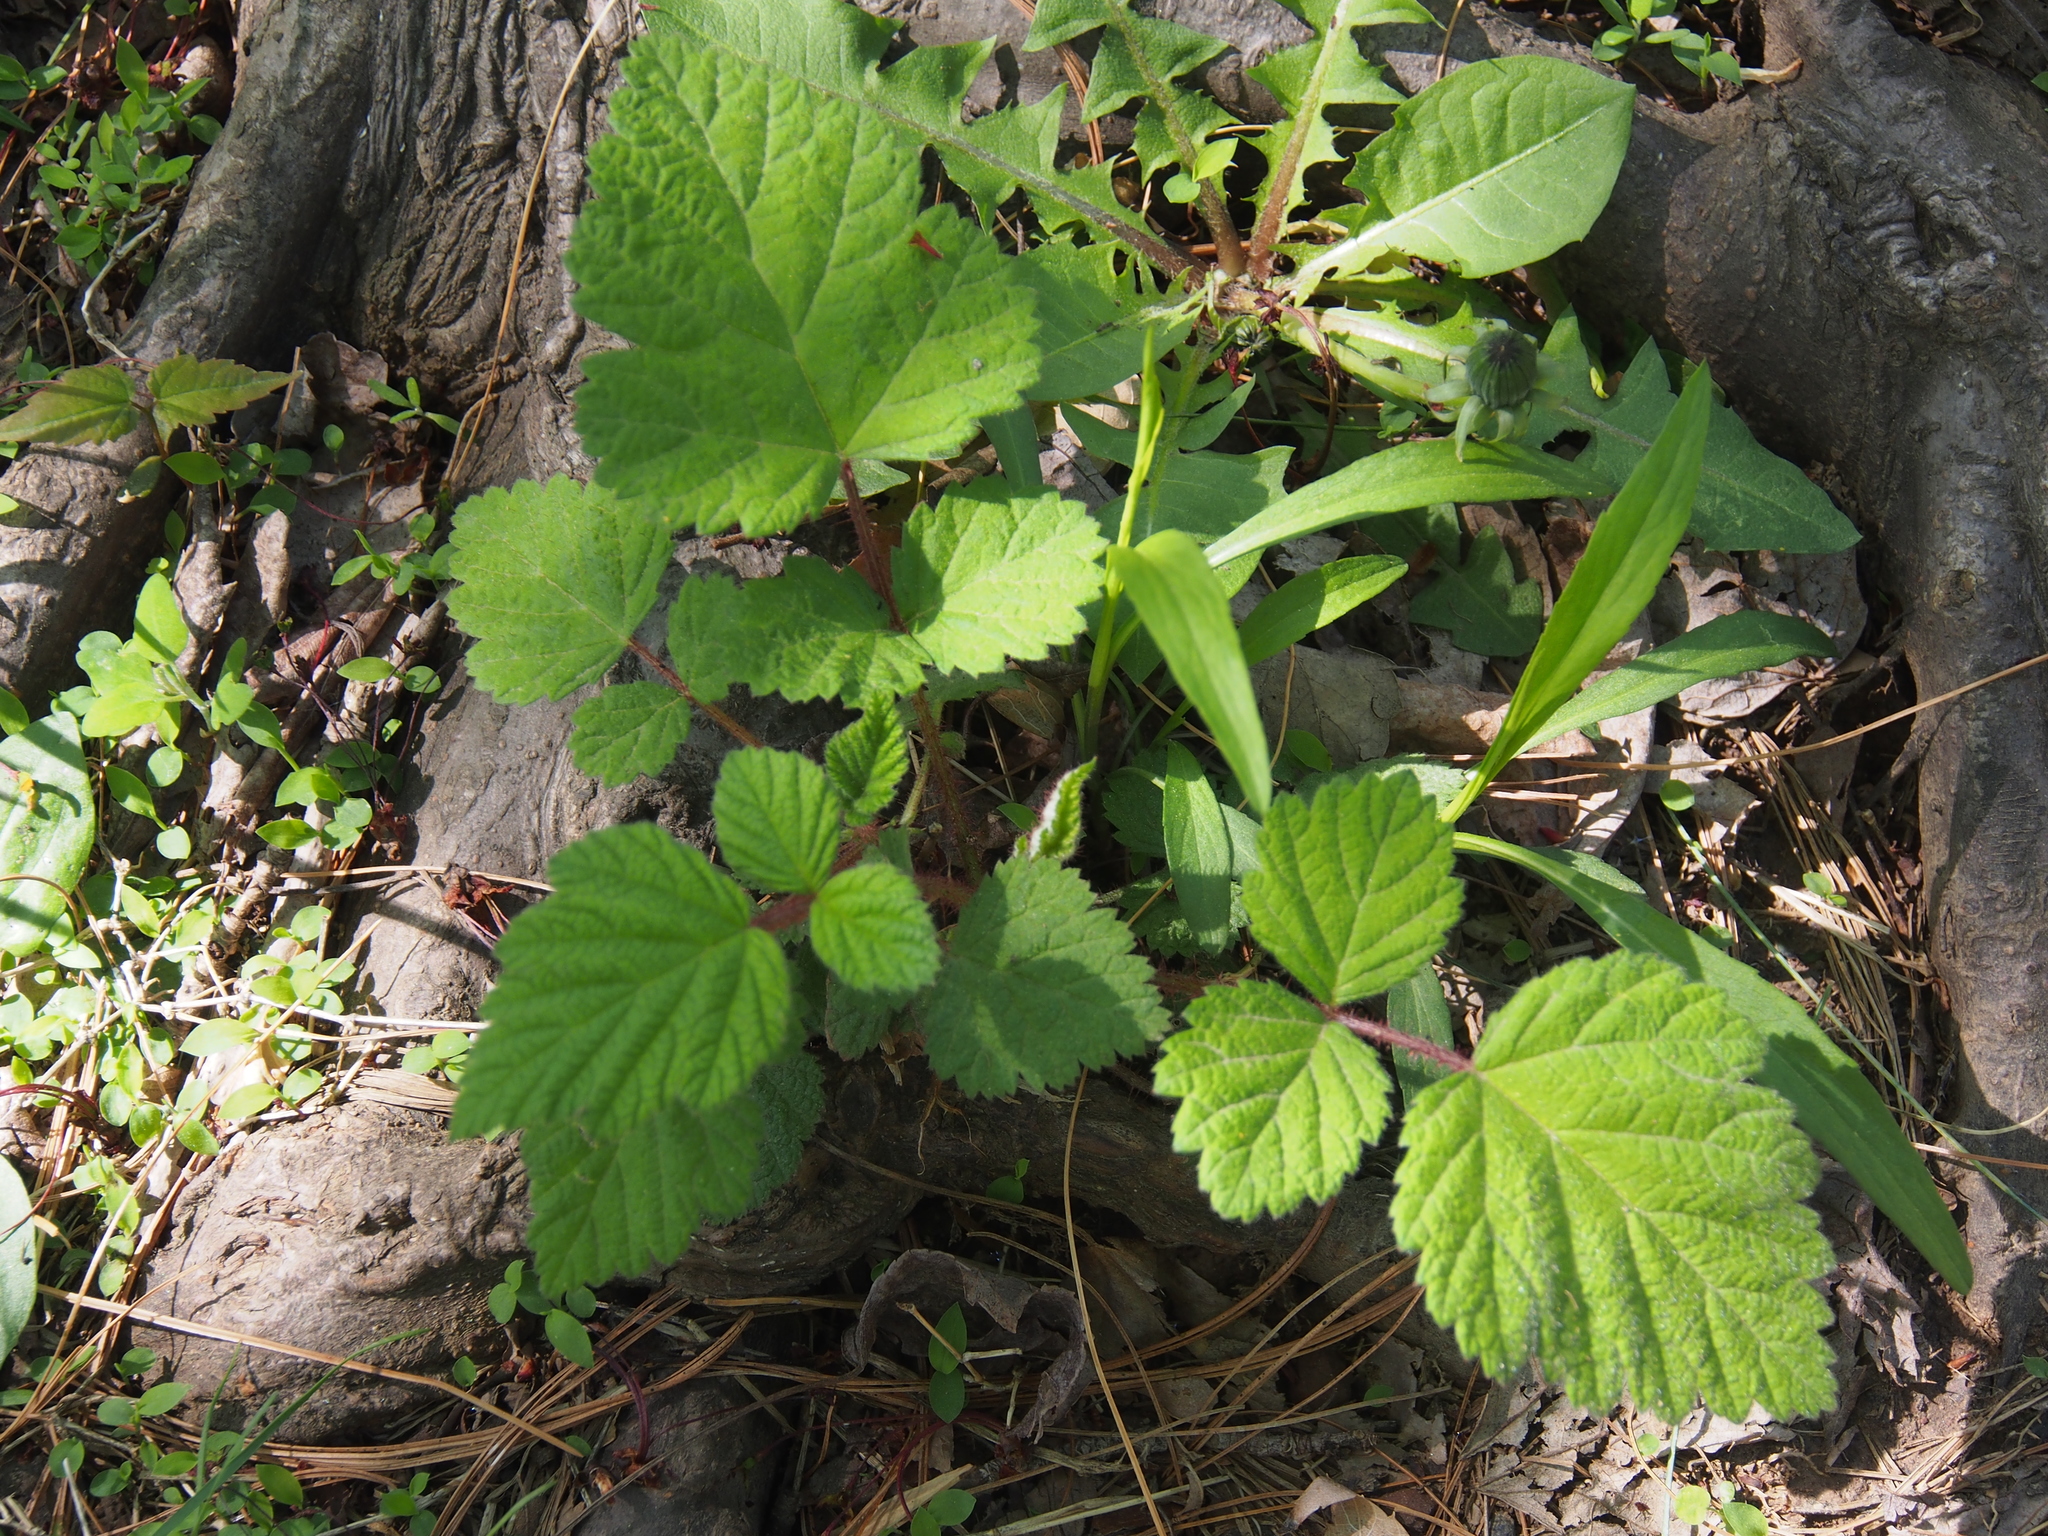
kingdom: Plantae
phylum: Tracheophyta
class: Magnoliopsida
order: Rosales
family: Rosaceae
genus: Rubus
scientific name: Rubus phoenicolasius
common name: Japanese wineberry
